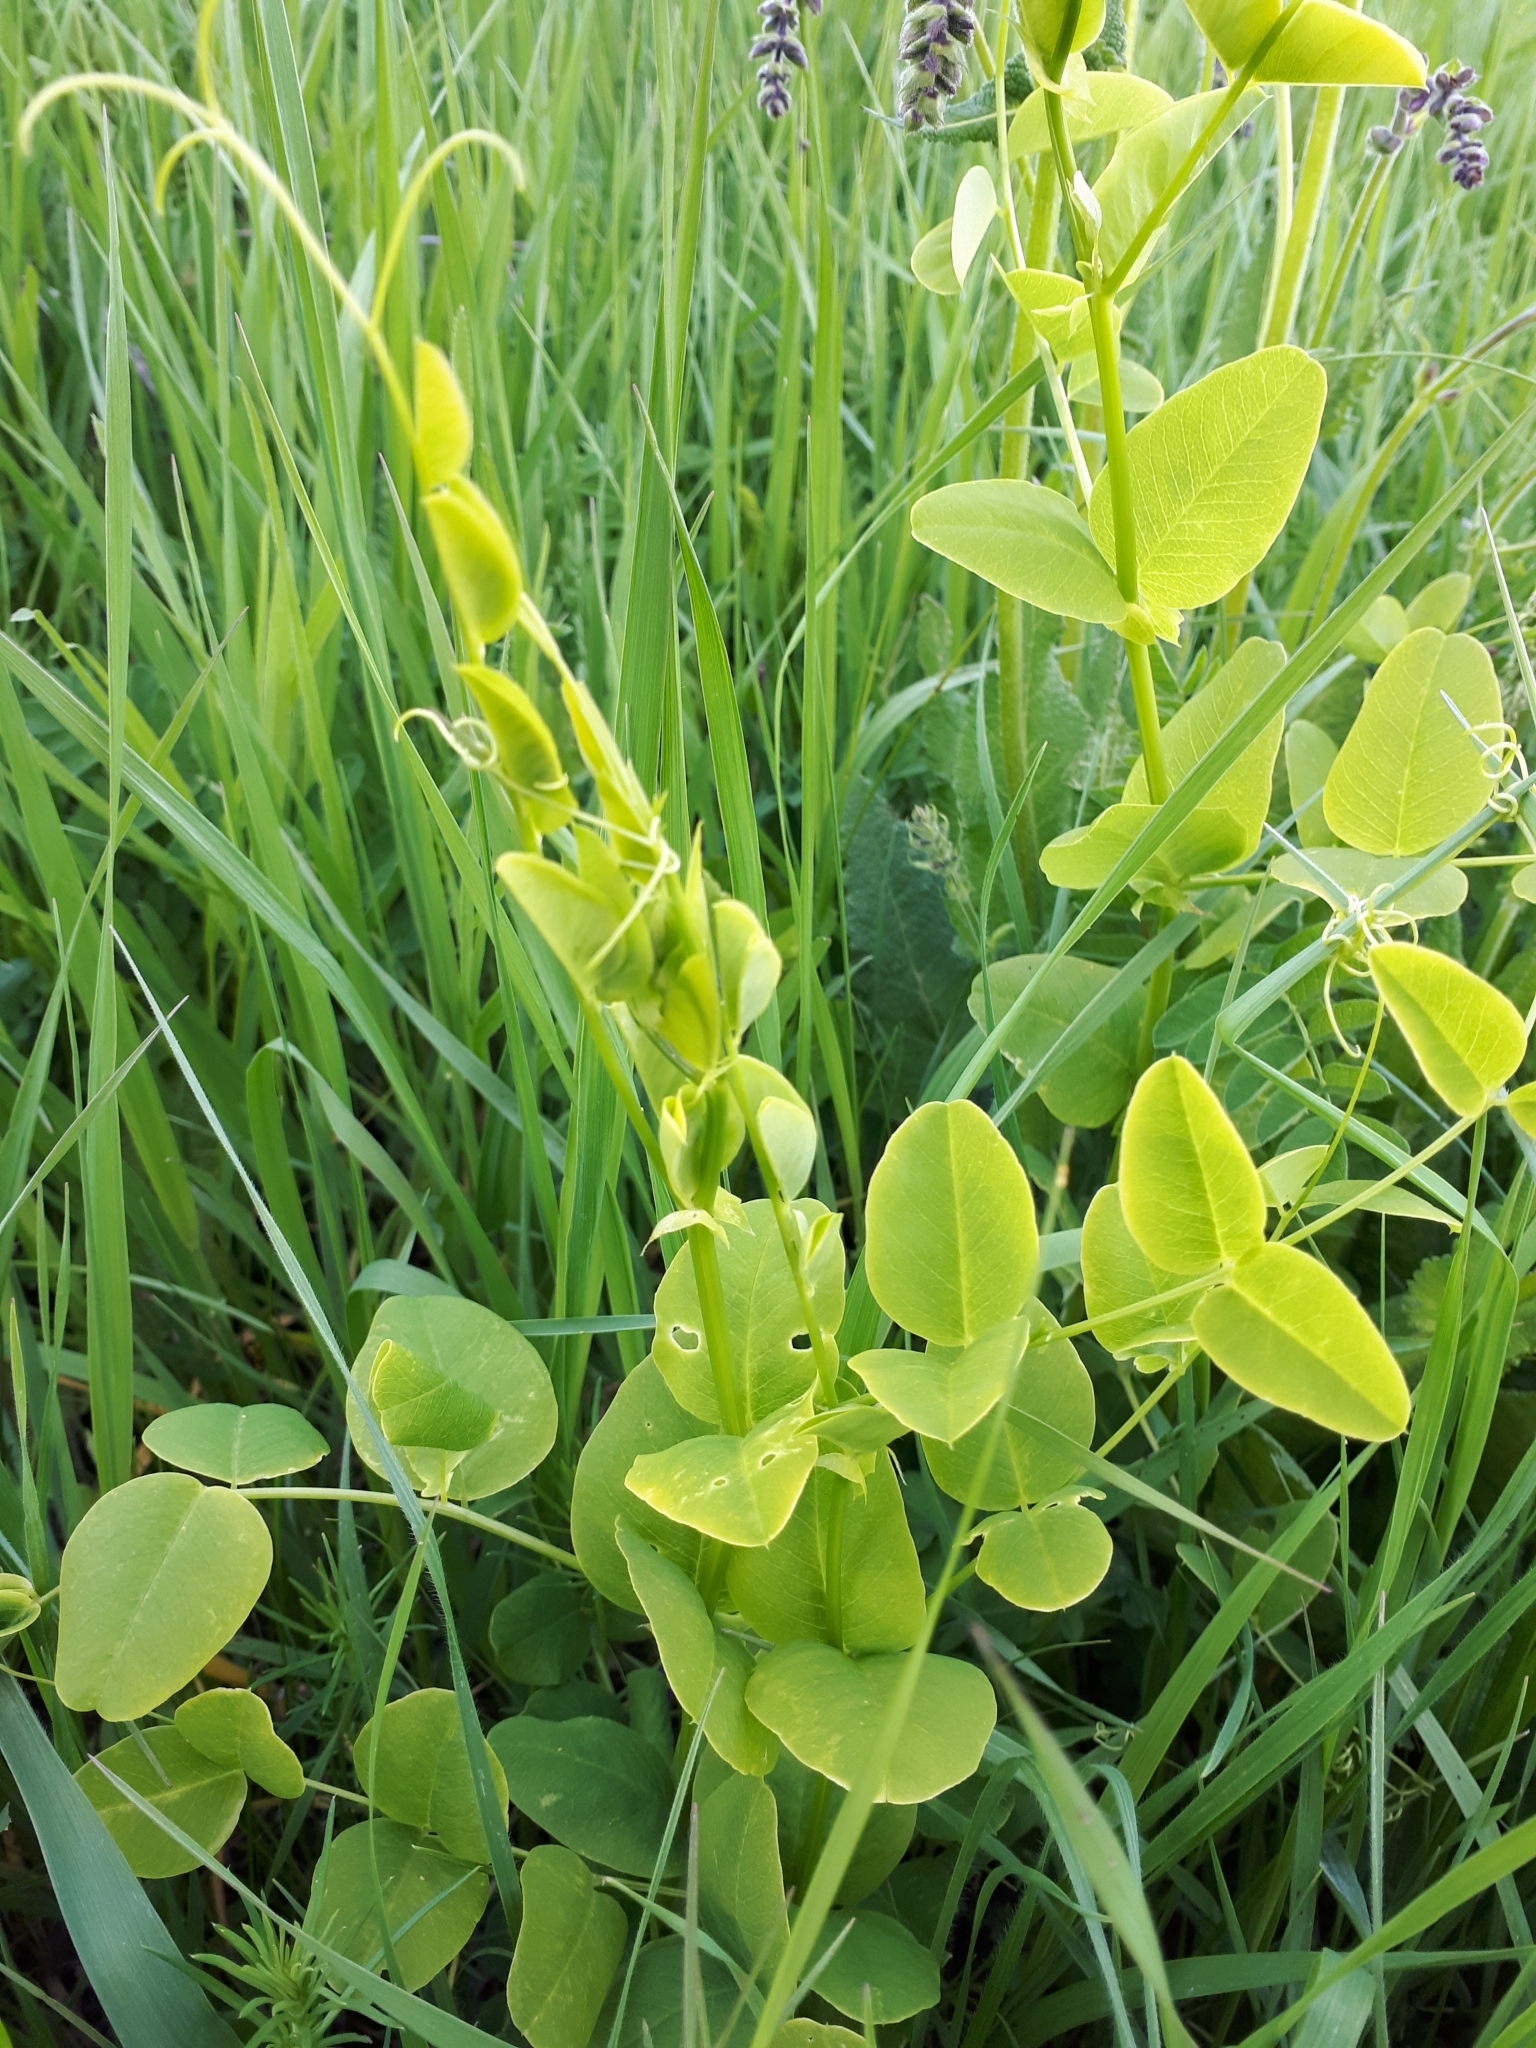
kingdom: Plantae
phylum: Tracheophyta
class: Magnoliopsida
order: Fabales
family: Fabaceae
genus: Vicia
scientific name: Vicia pisiformis
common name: Pale-flower vetch
